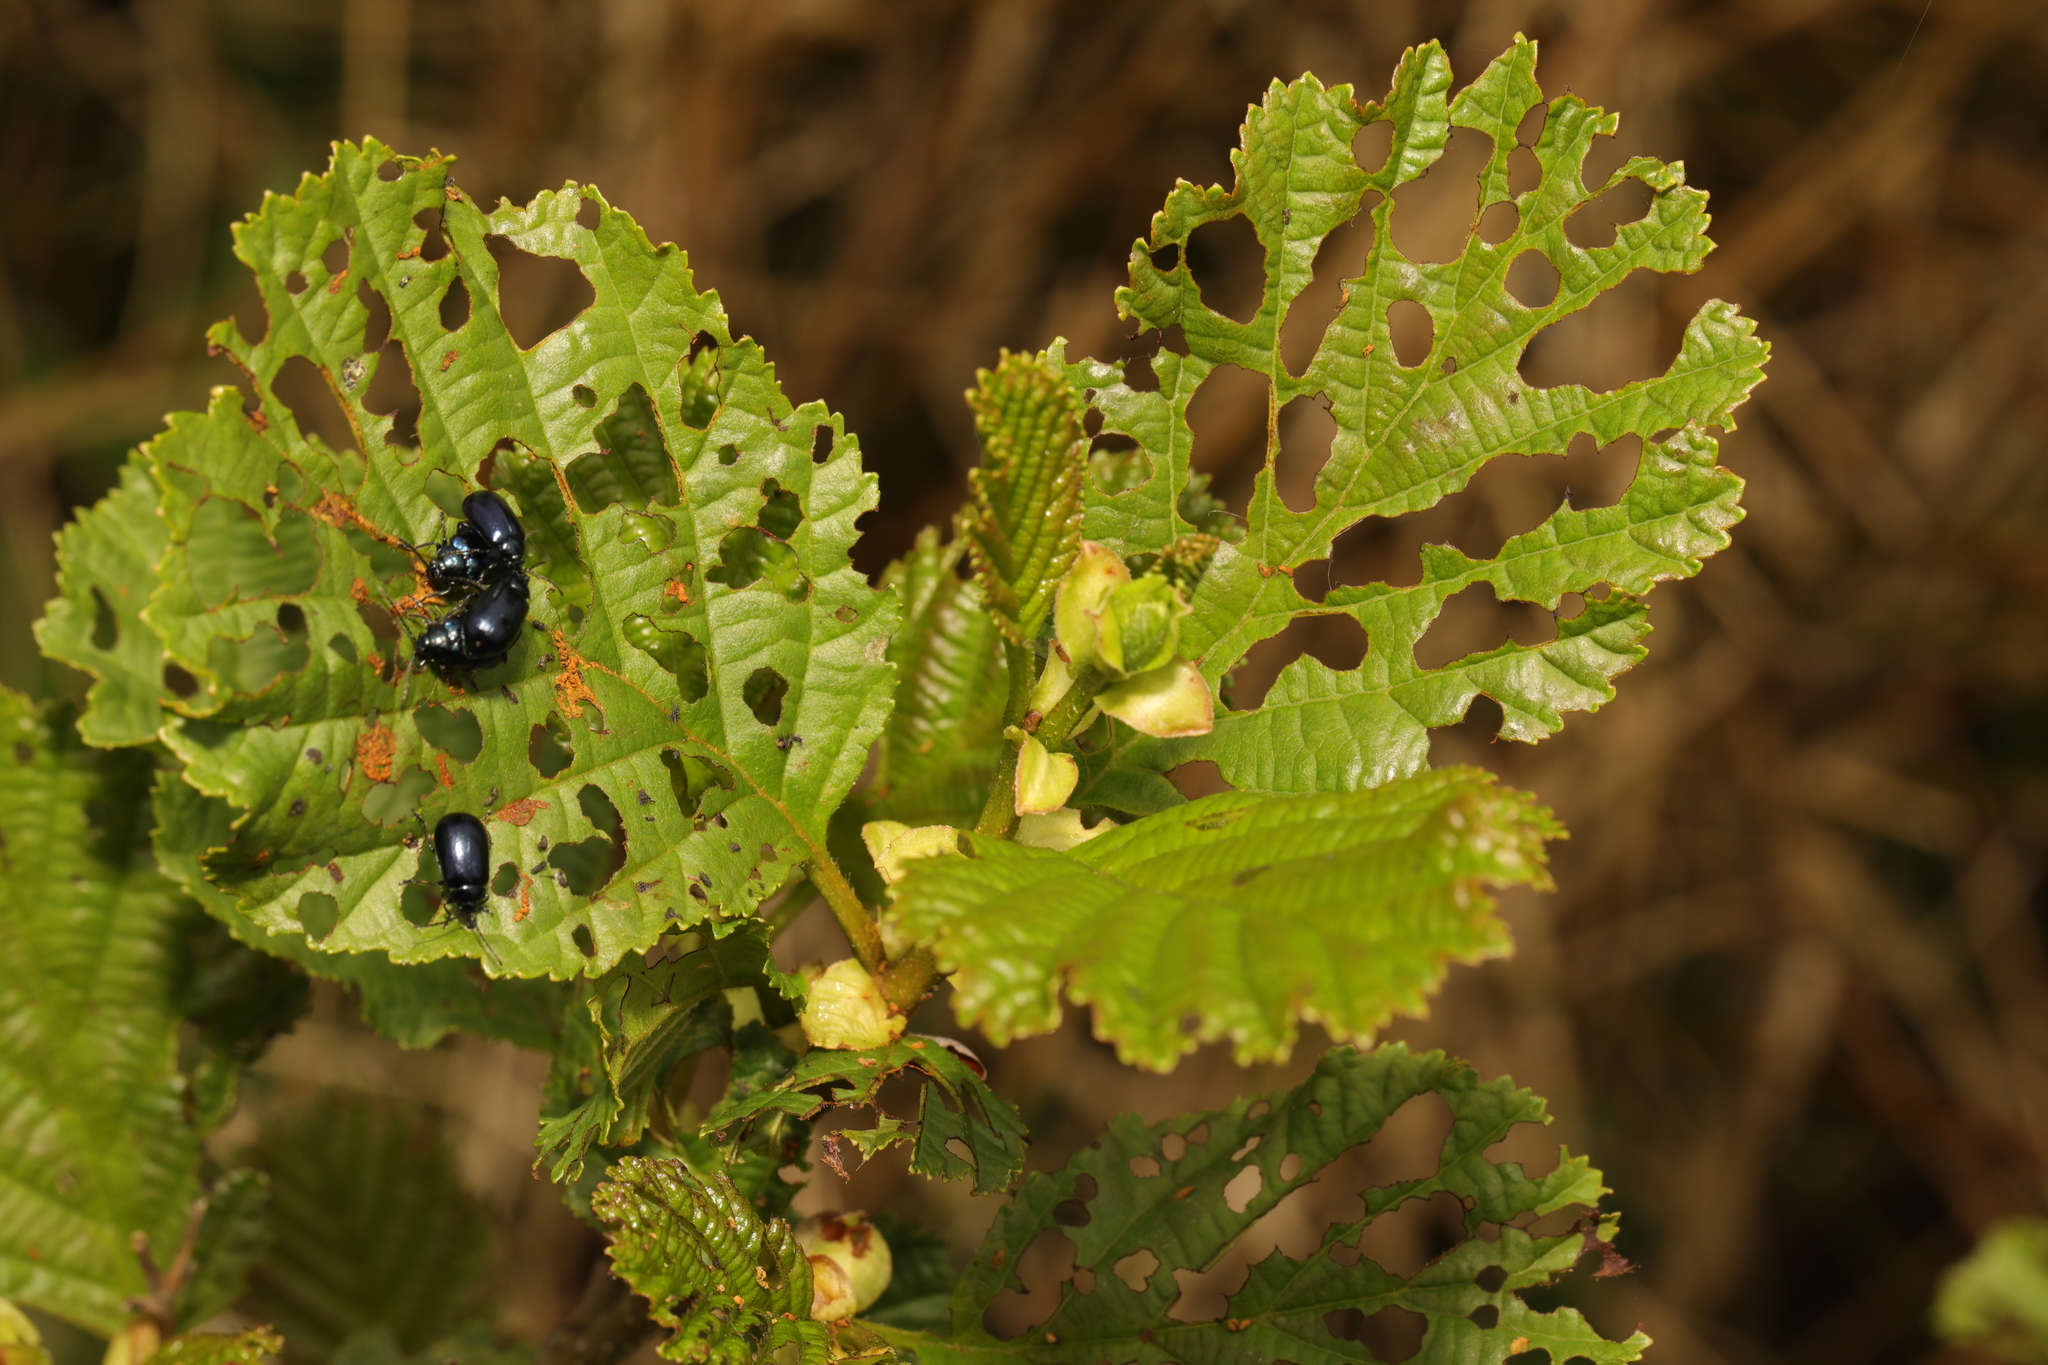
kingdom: Plantae
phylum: Tracheophyta
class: Magnoliopsida
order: Fagales
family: Betulaceae
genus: Alnus
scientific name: Alnus glutinosa
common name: Black alder
